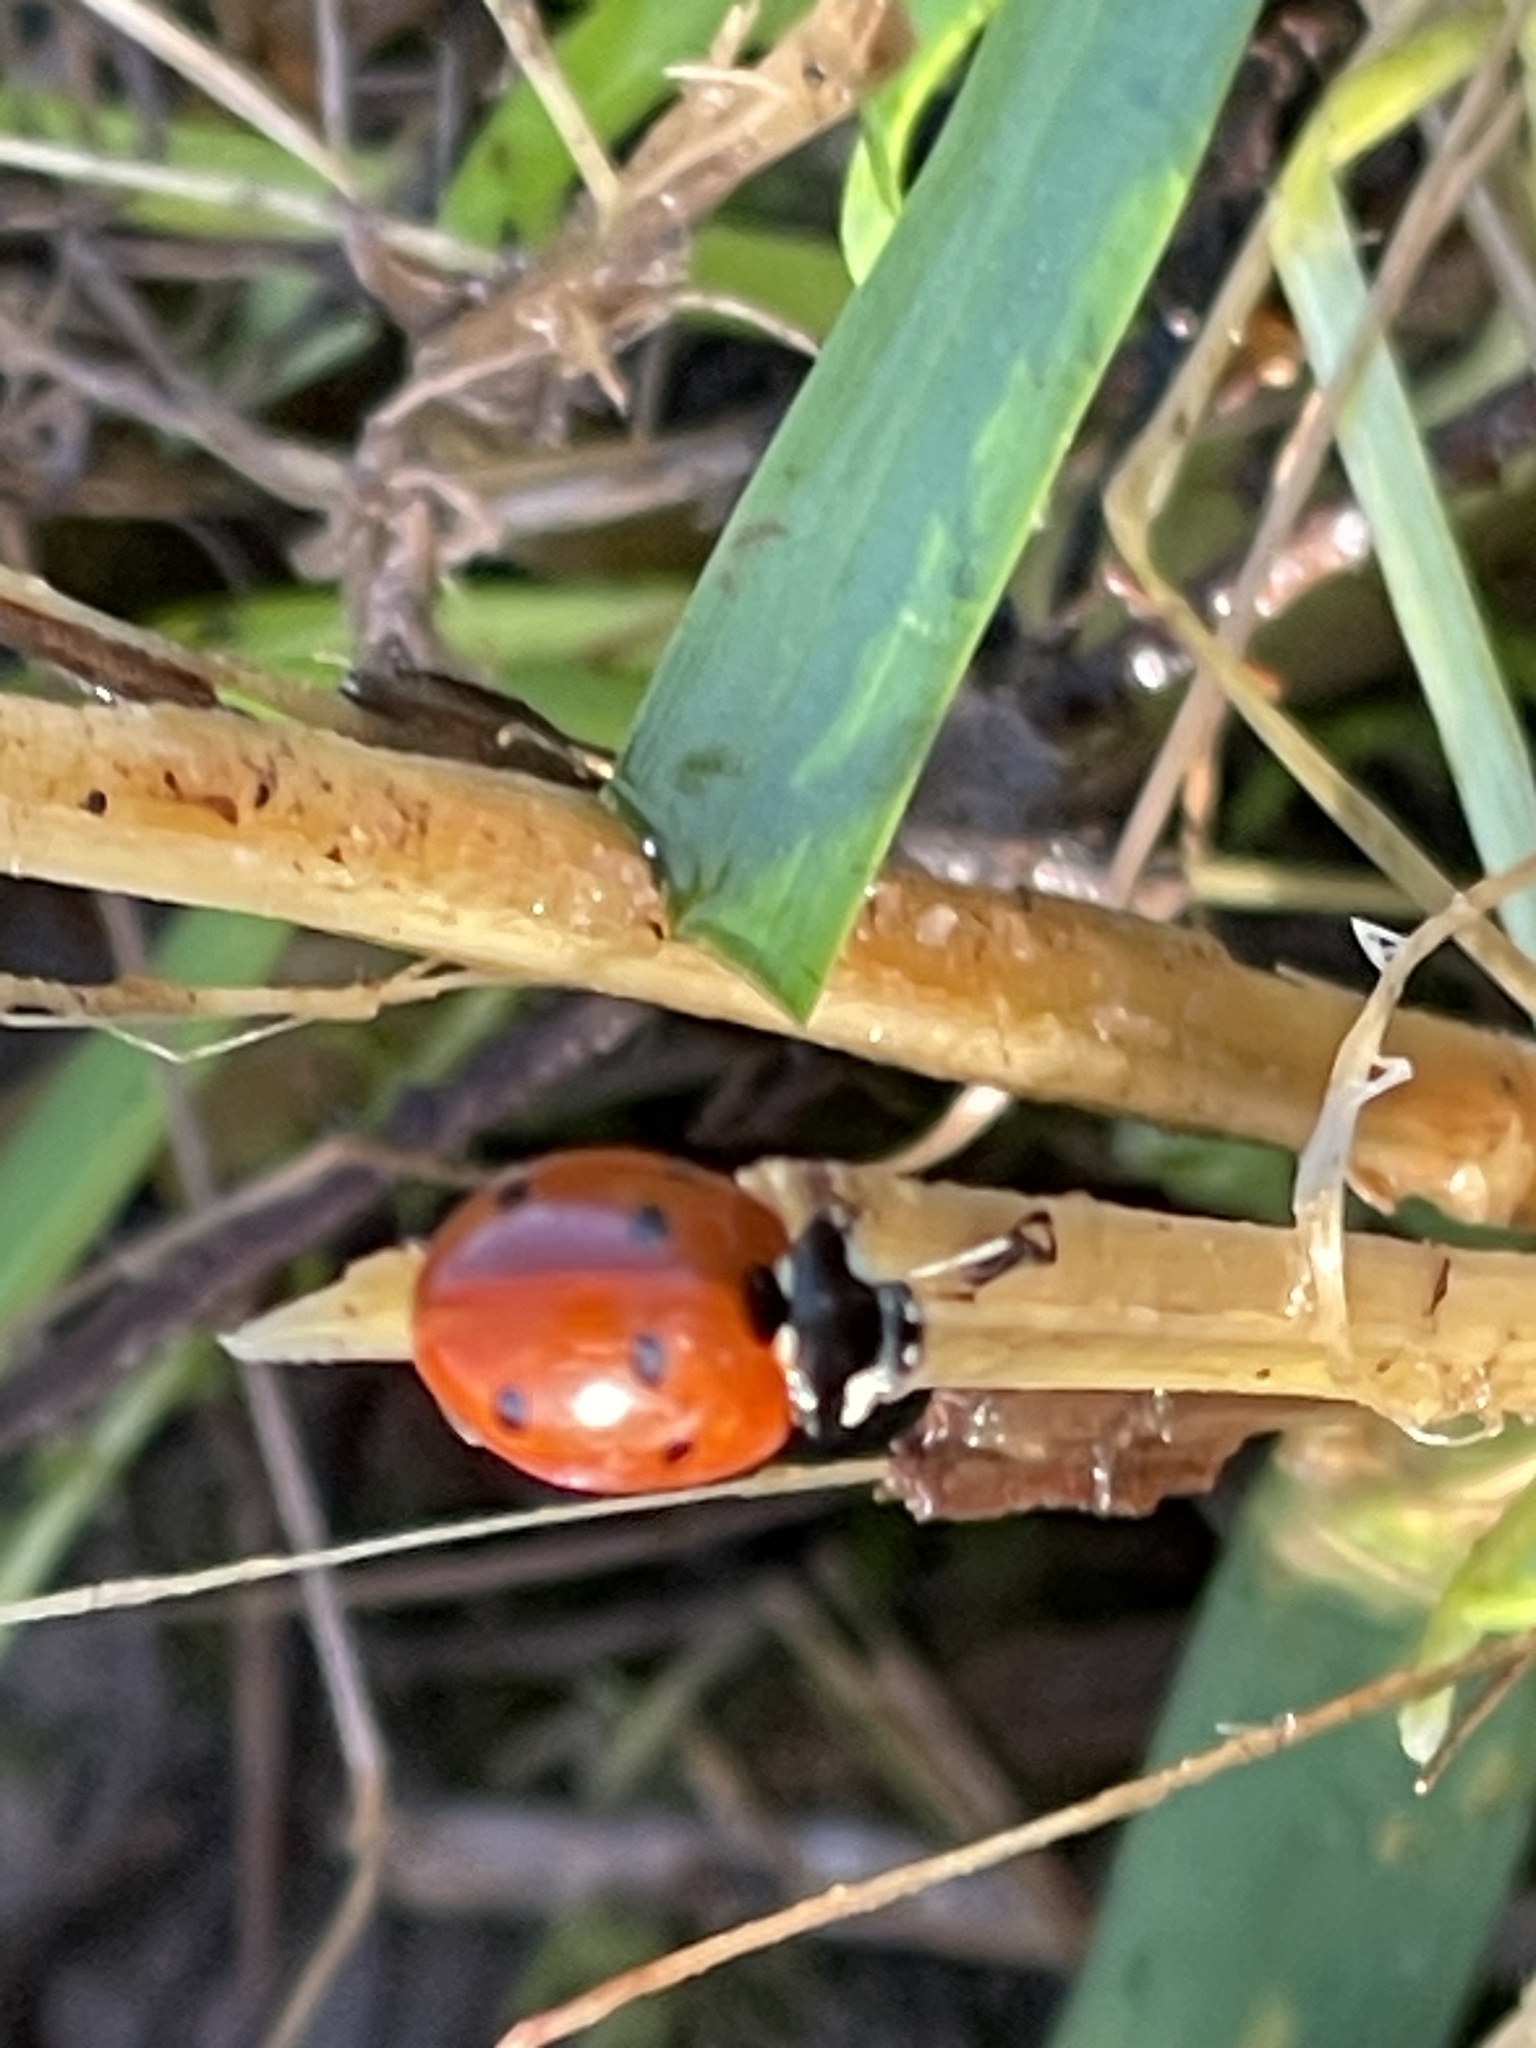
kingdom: Animalia
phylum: Arthropoda
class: Insecta
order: Coleoptera
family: Coccinellidae
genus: Coccinella
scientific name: Coccinella septempunctata
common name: Sevenspotted lady beetle
